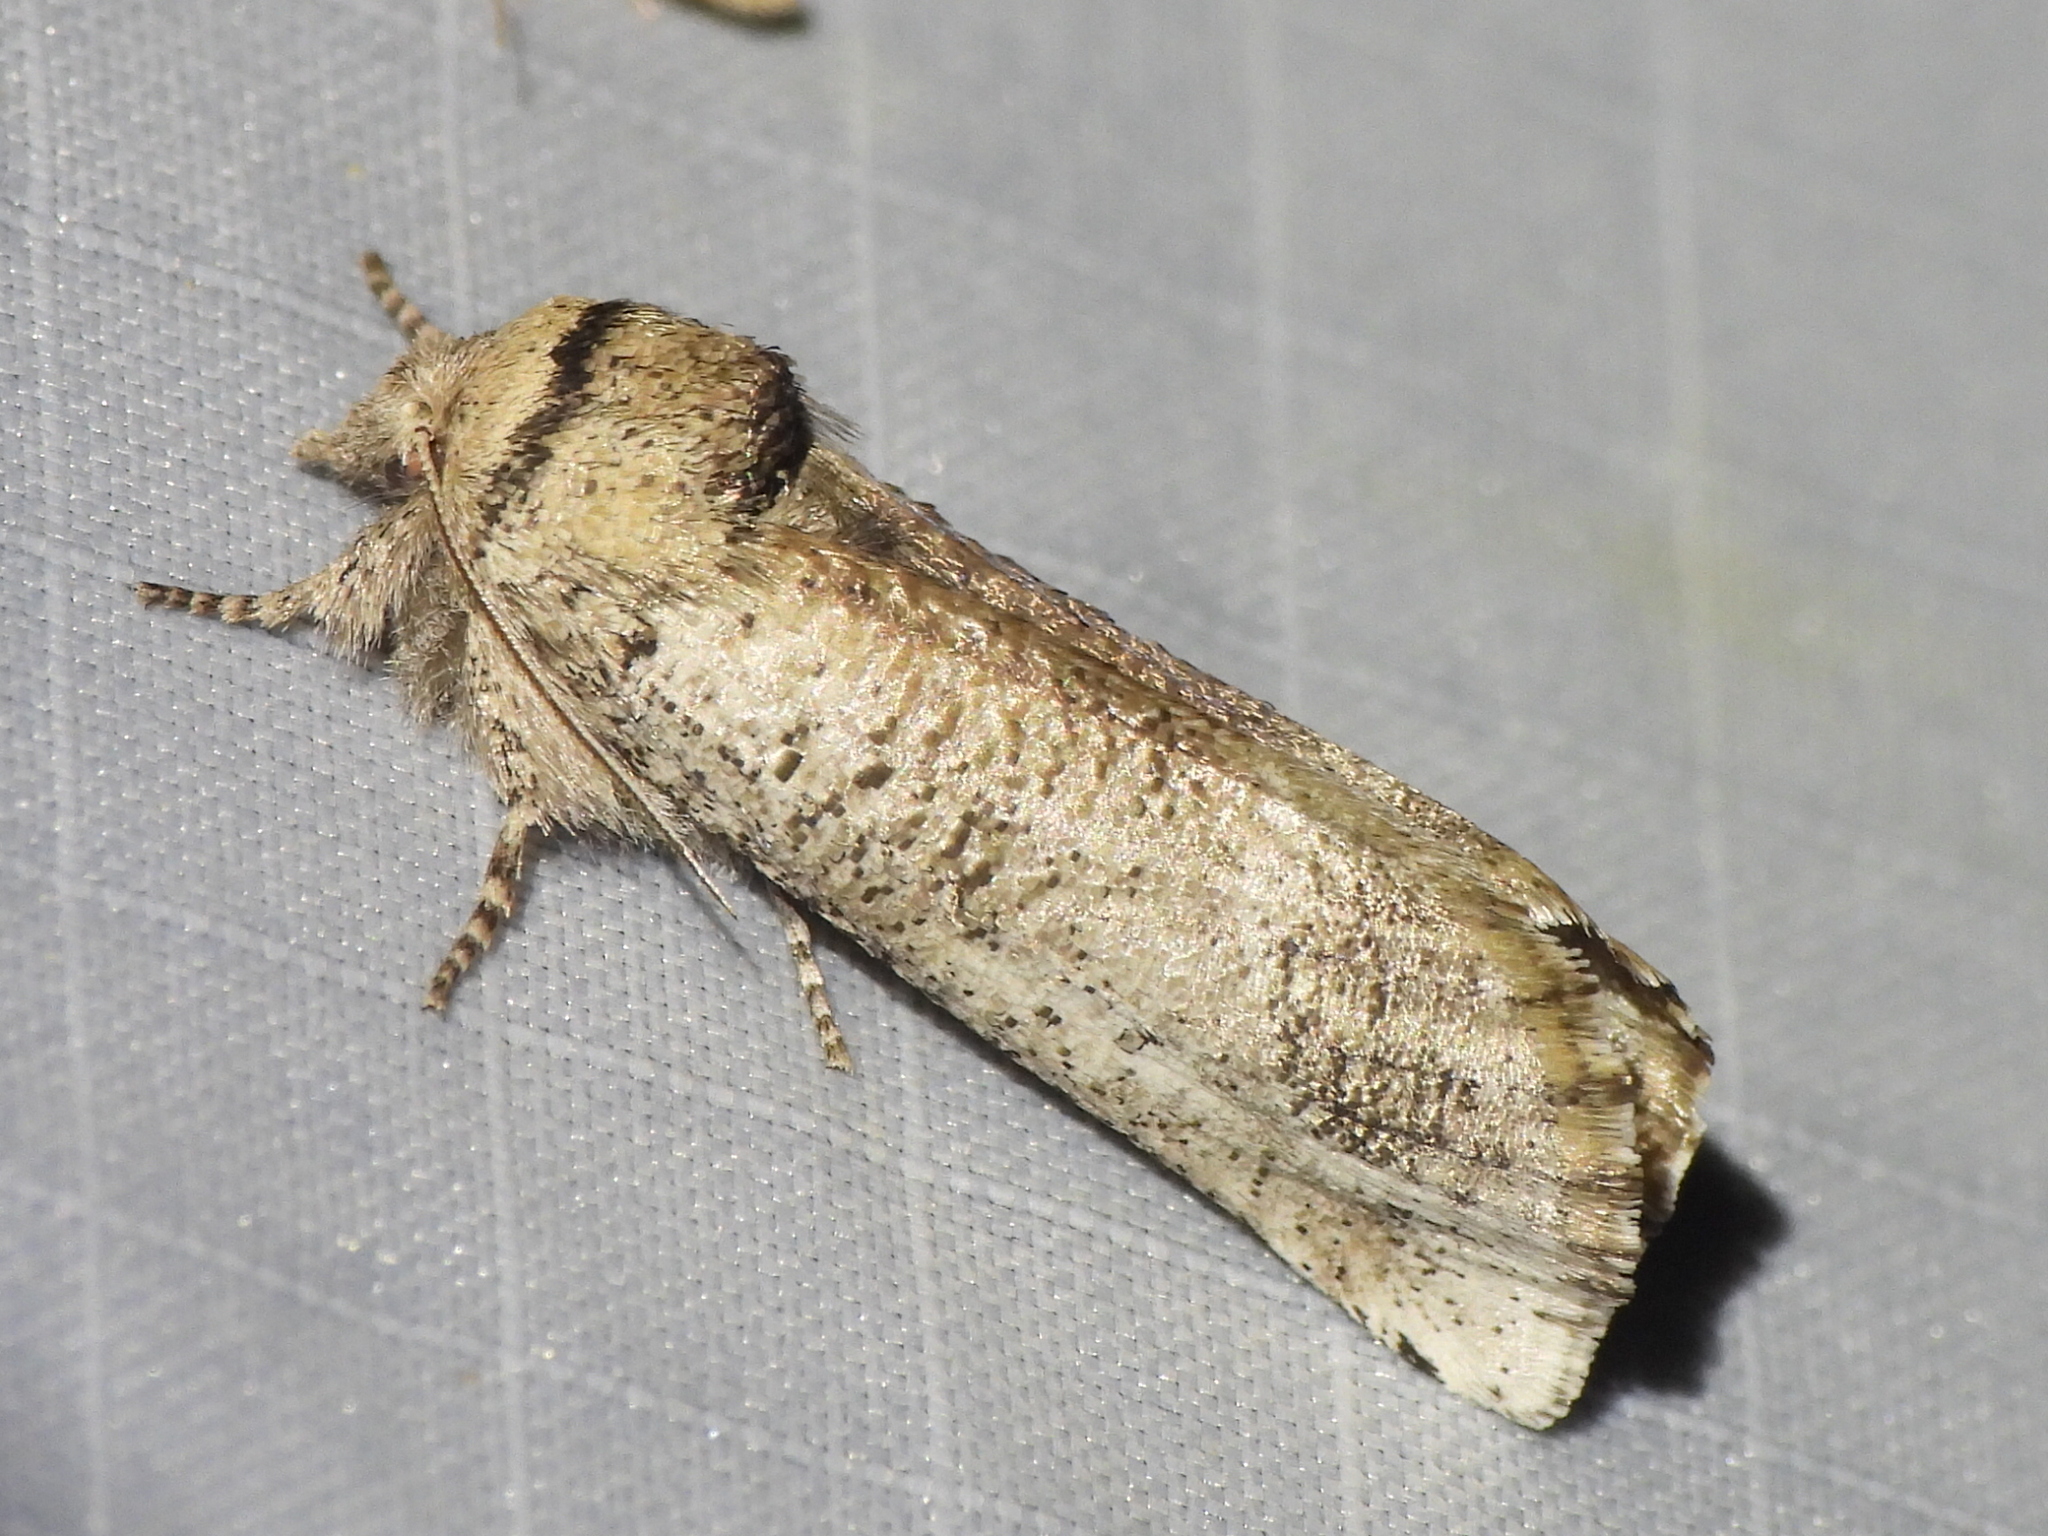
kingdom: Animalia
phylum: Arthropoda
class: Insecta
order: Lepidoptera
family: Erebidae
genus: Aon
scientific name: Aon noctuiformis
